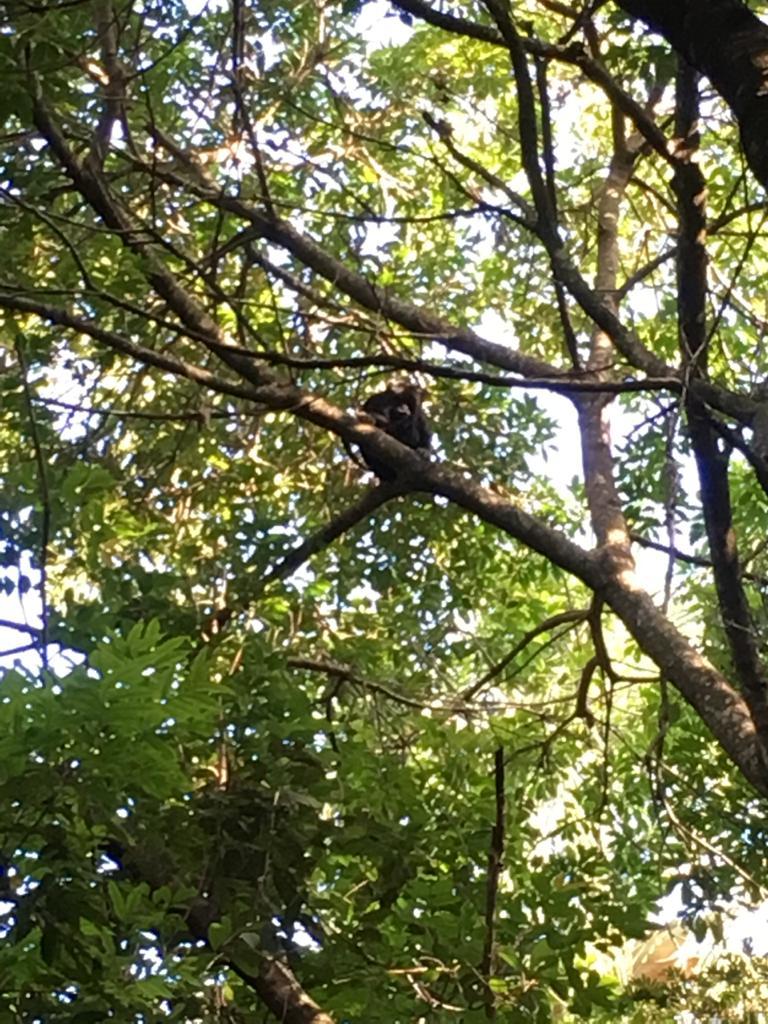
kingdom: Animalia
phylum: Chordata
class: Mammalia
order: Primates
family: Atelidae
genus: Alouatta
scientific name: Alouatta caraya
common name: Black howler
